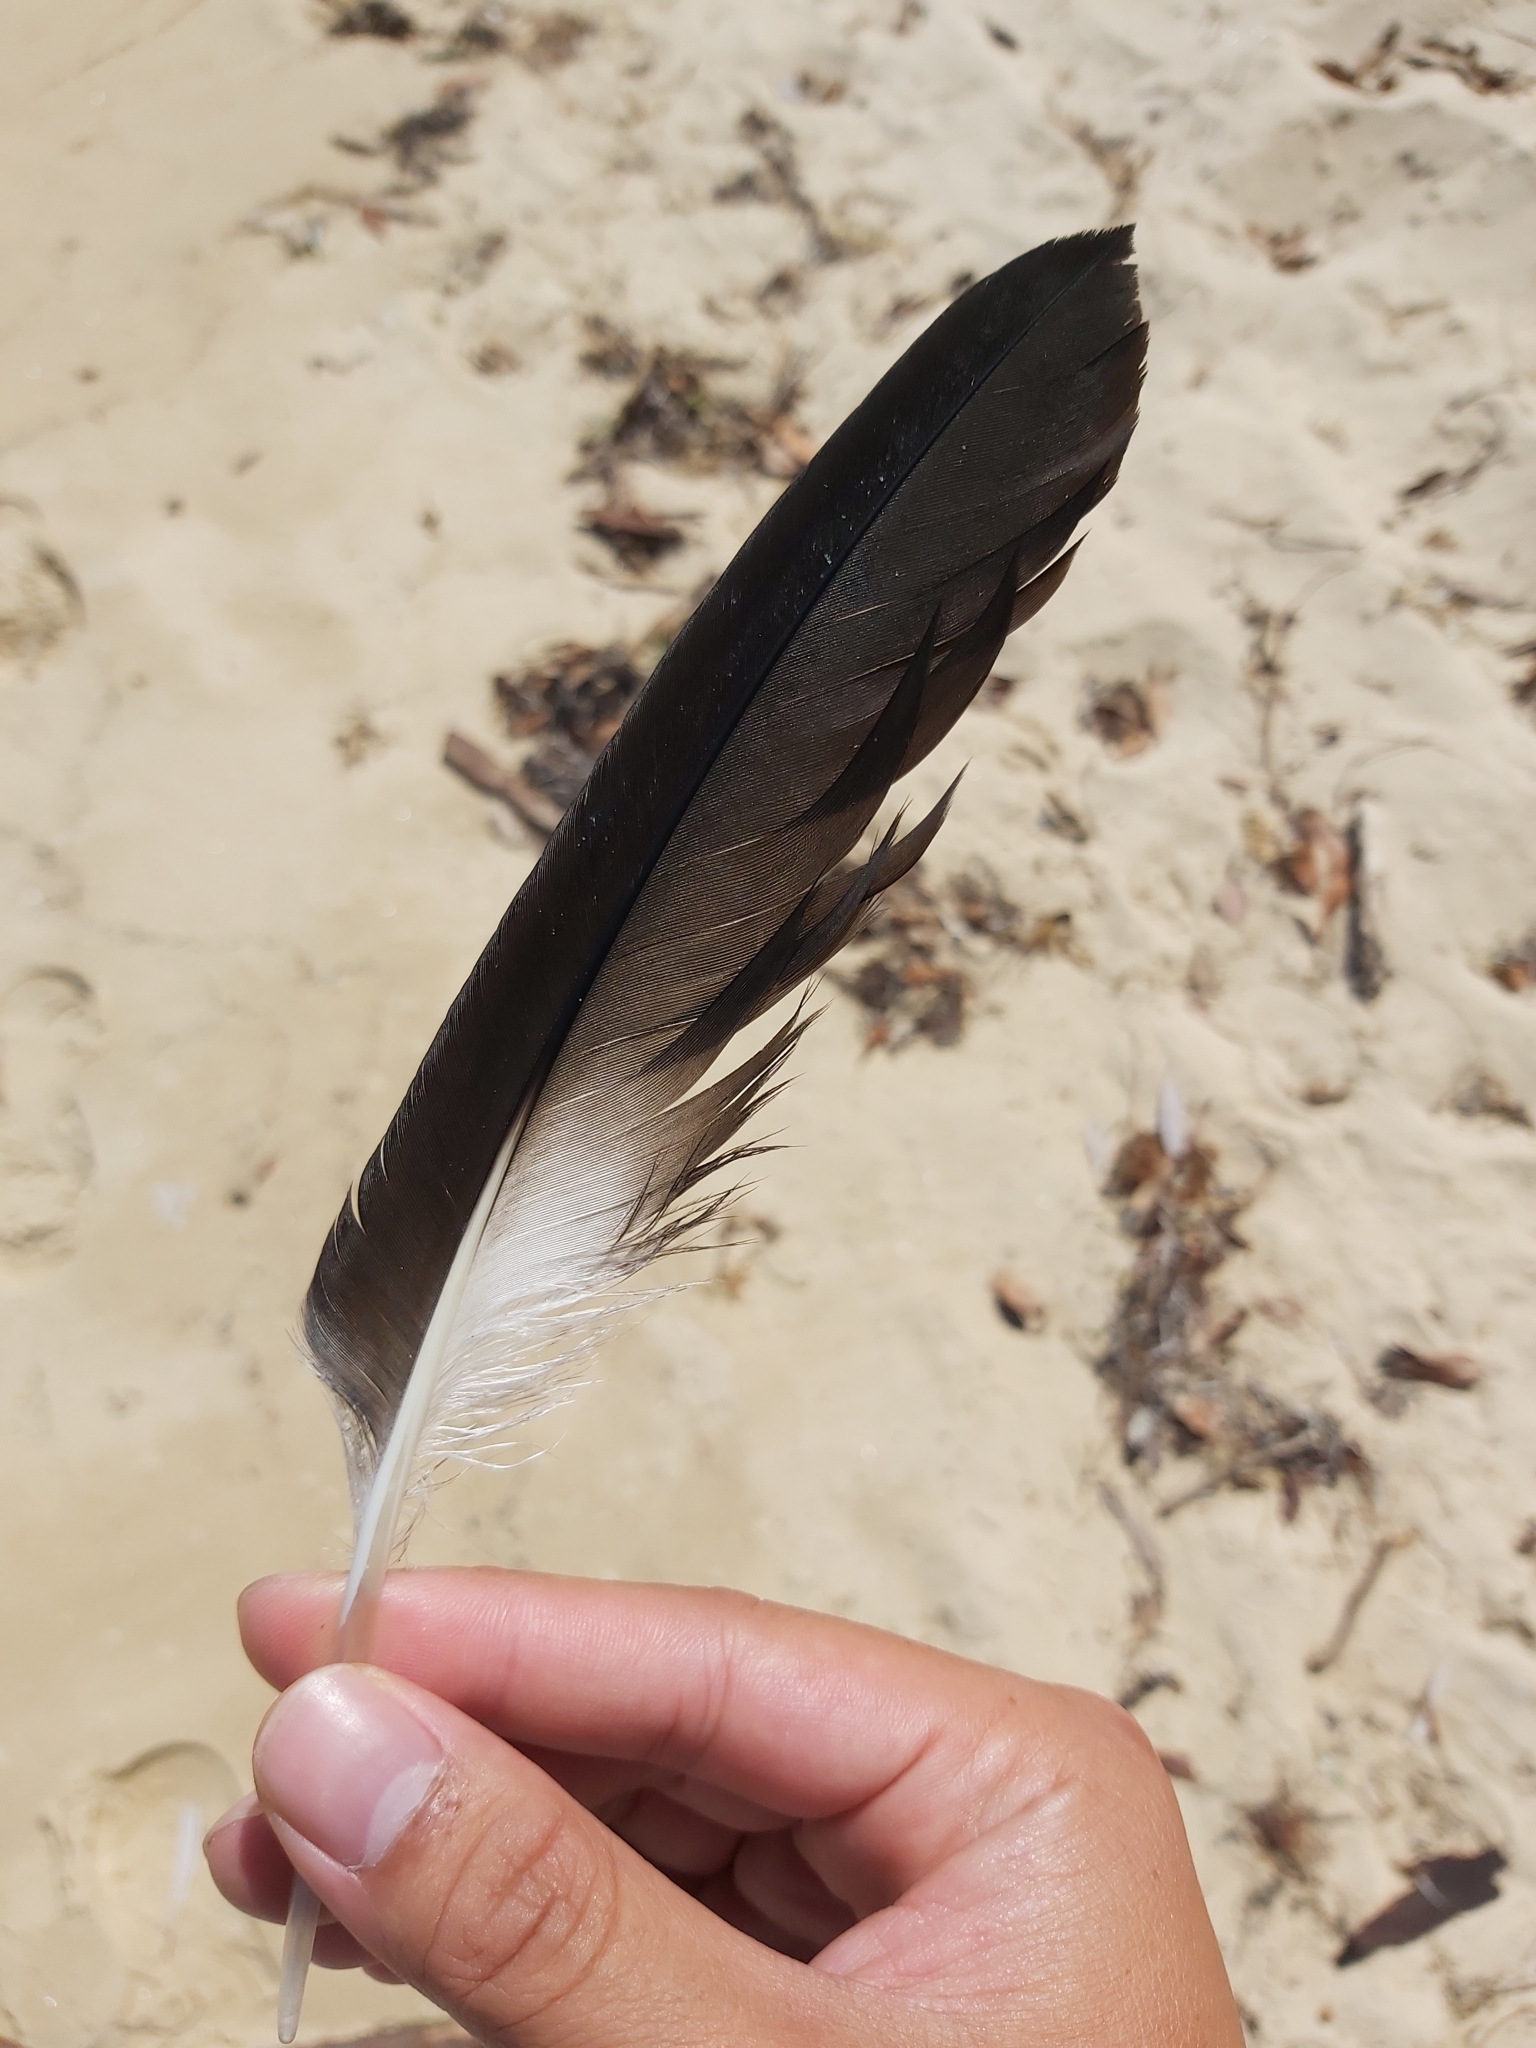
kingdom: Animalia
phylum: Chordata
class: Aves
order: Pelecaniformes
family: Pelecanidae
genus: Pelecanus
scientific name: Pelecanus conspicillatus
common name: Australian pelican
